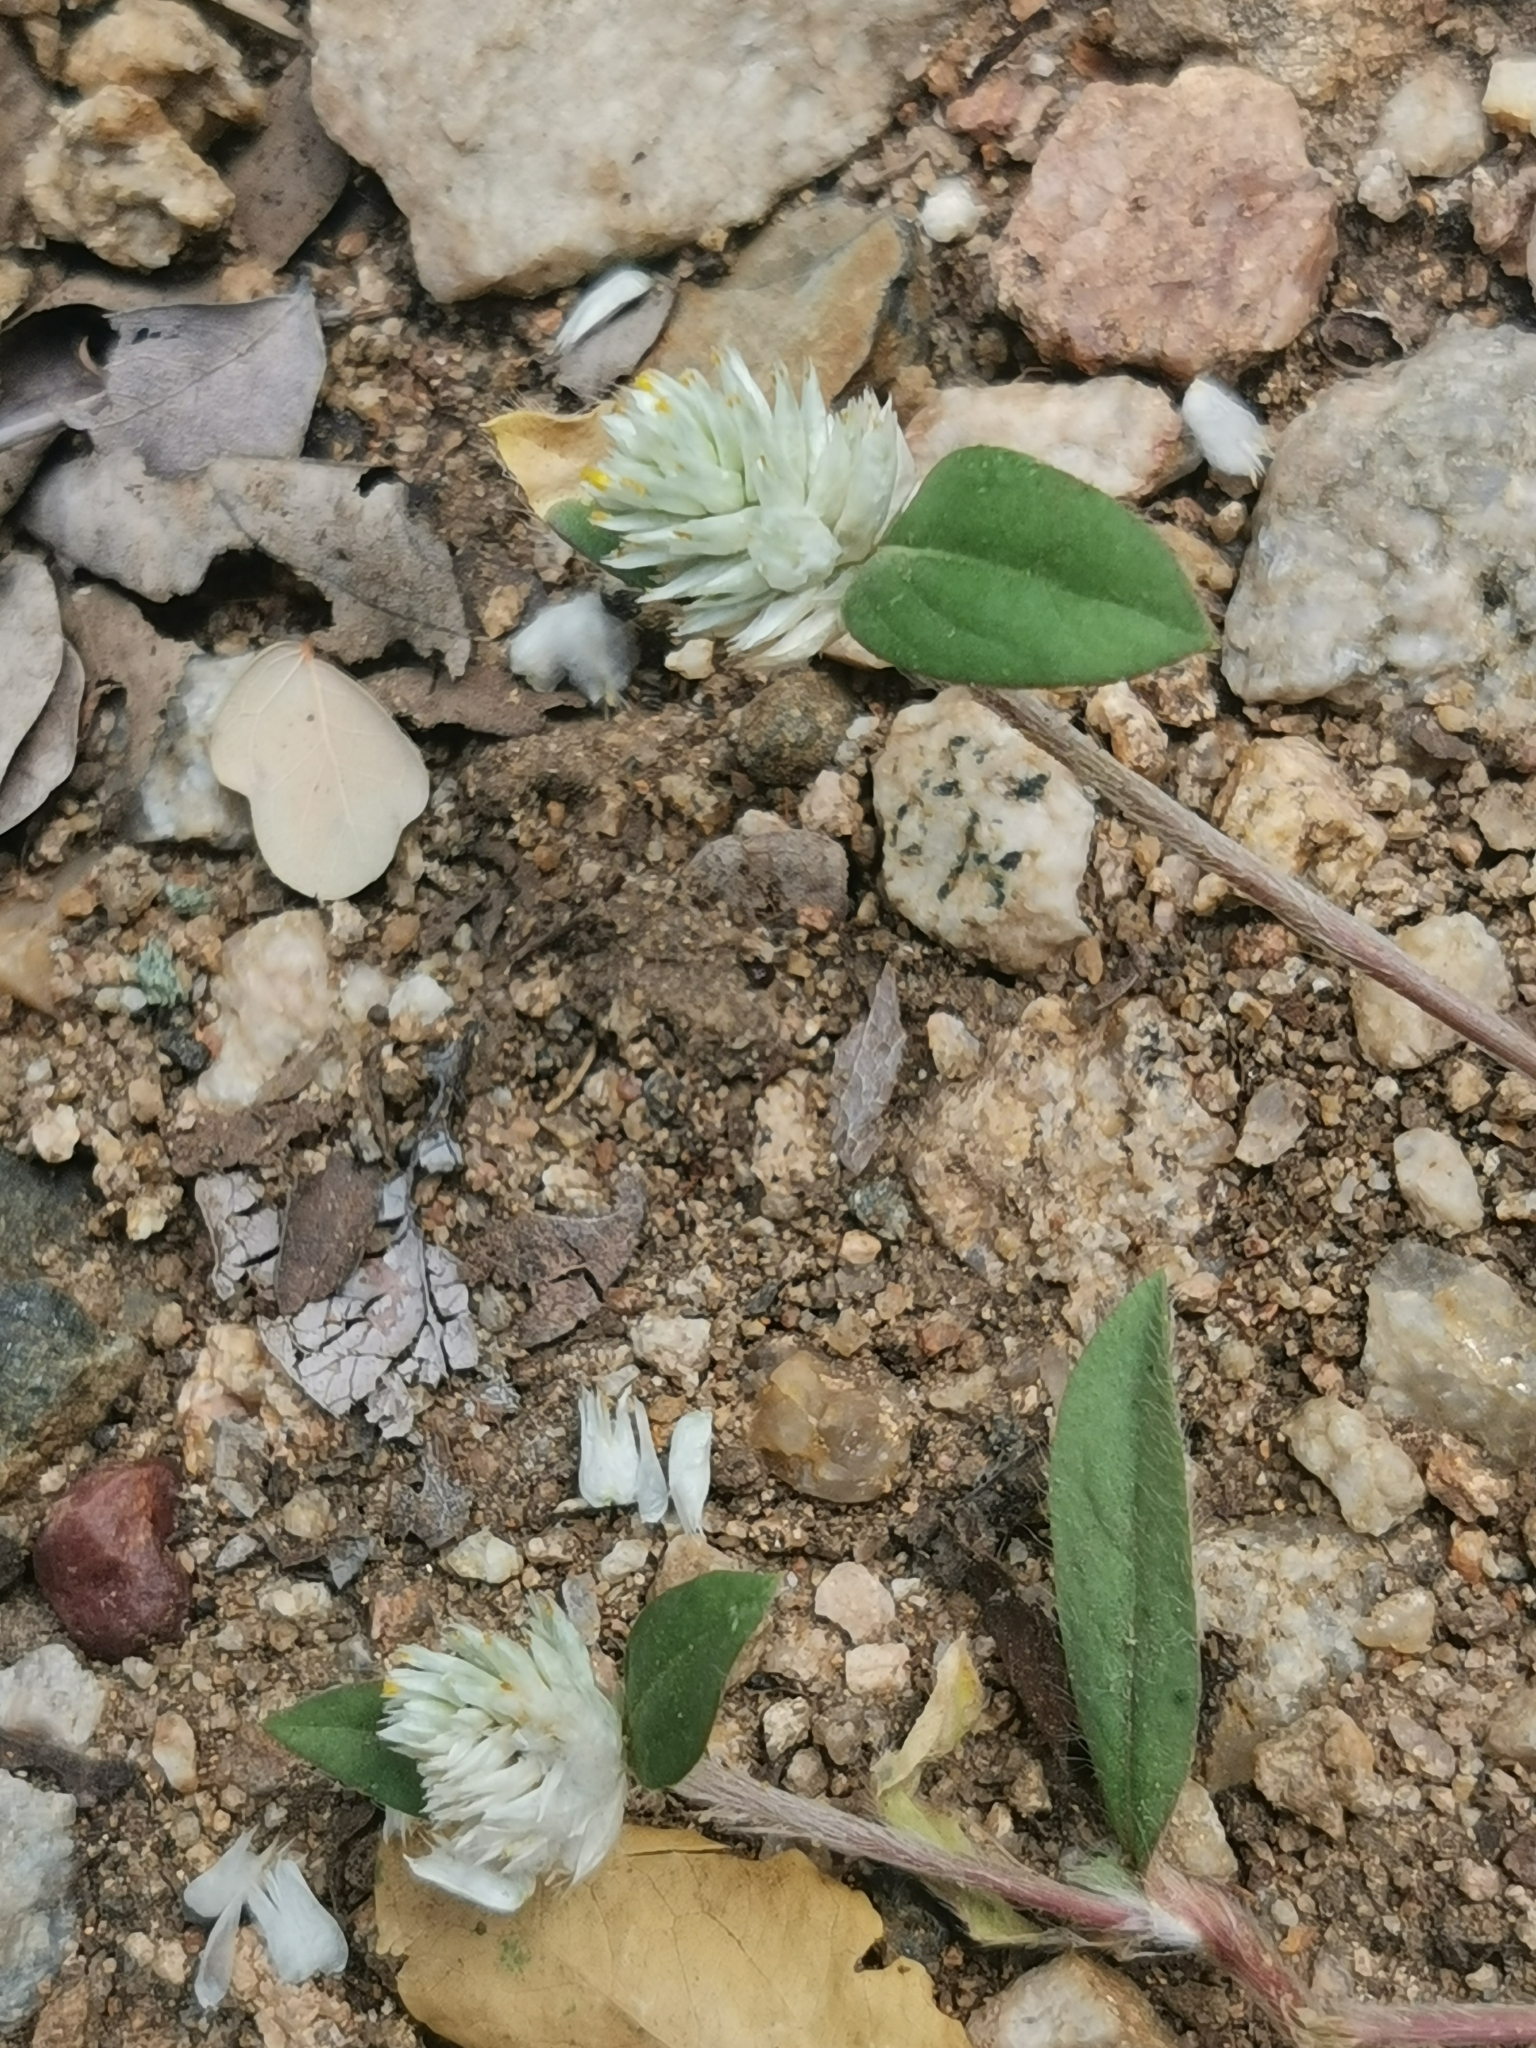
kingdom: Plantae
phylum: Tracheophyta
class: Magnoliopsida
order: Caryophyllales
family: Amaranthaceae
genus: Gomphrena
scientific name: Gomphrena celosioides
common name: Gomphrena-weed
